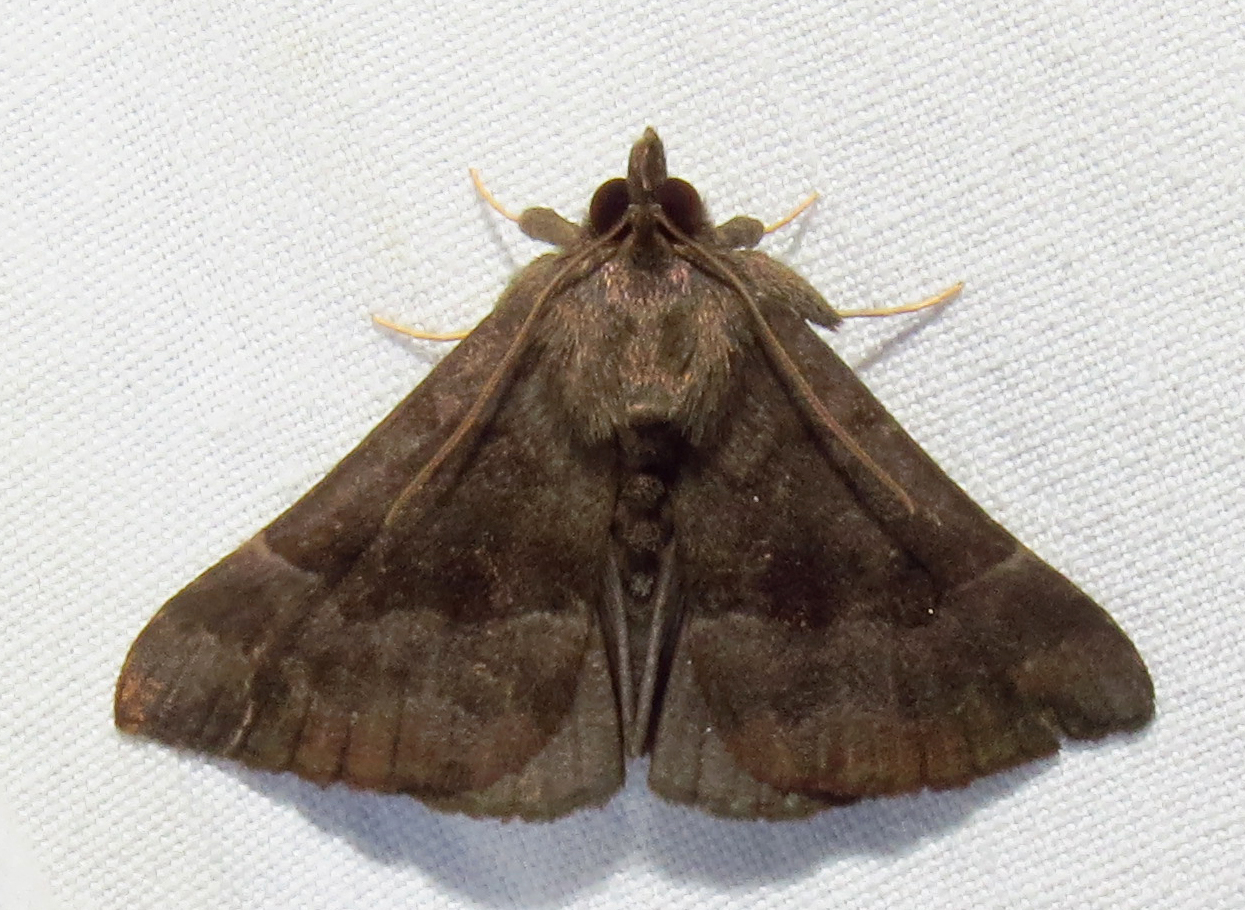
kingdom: Animalia
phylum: Arthropoda
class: Insecta
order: Lepidoptera
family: Erebidae
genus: Hypena
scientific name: Hypena madefactalis
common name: Gray-edged snout
